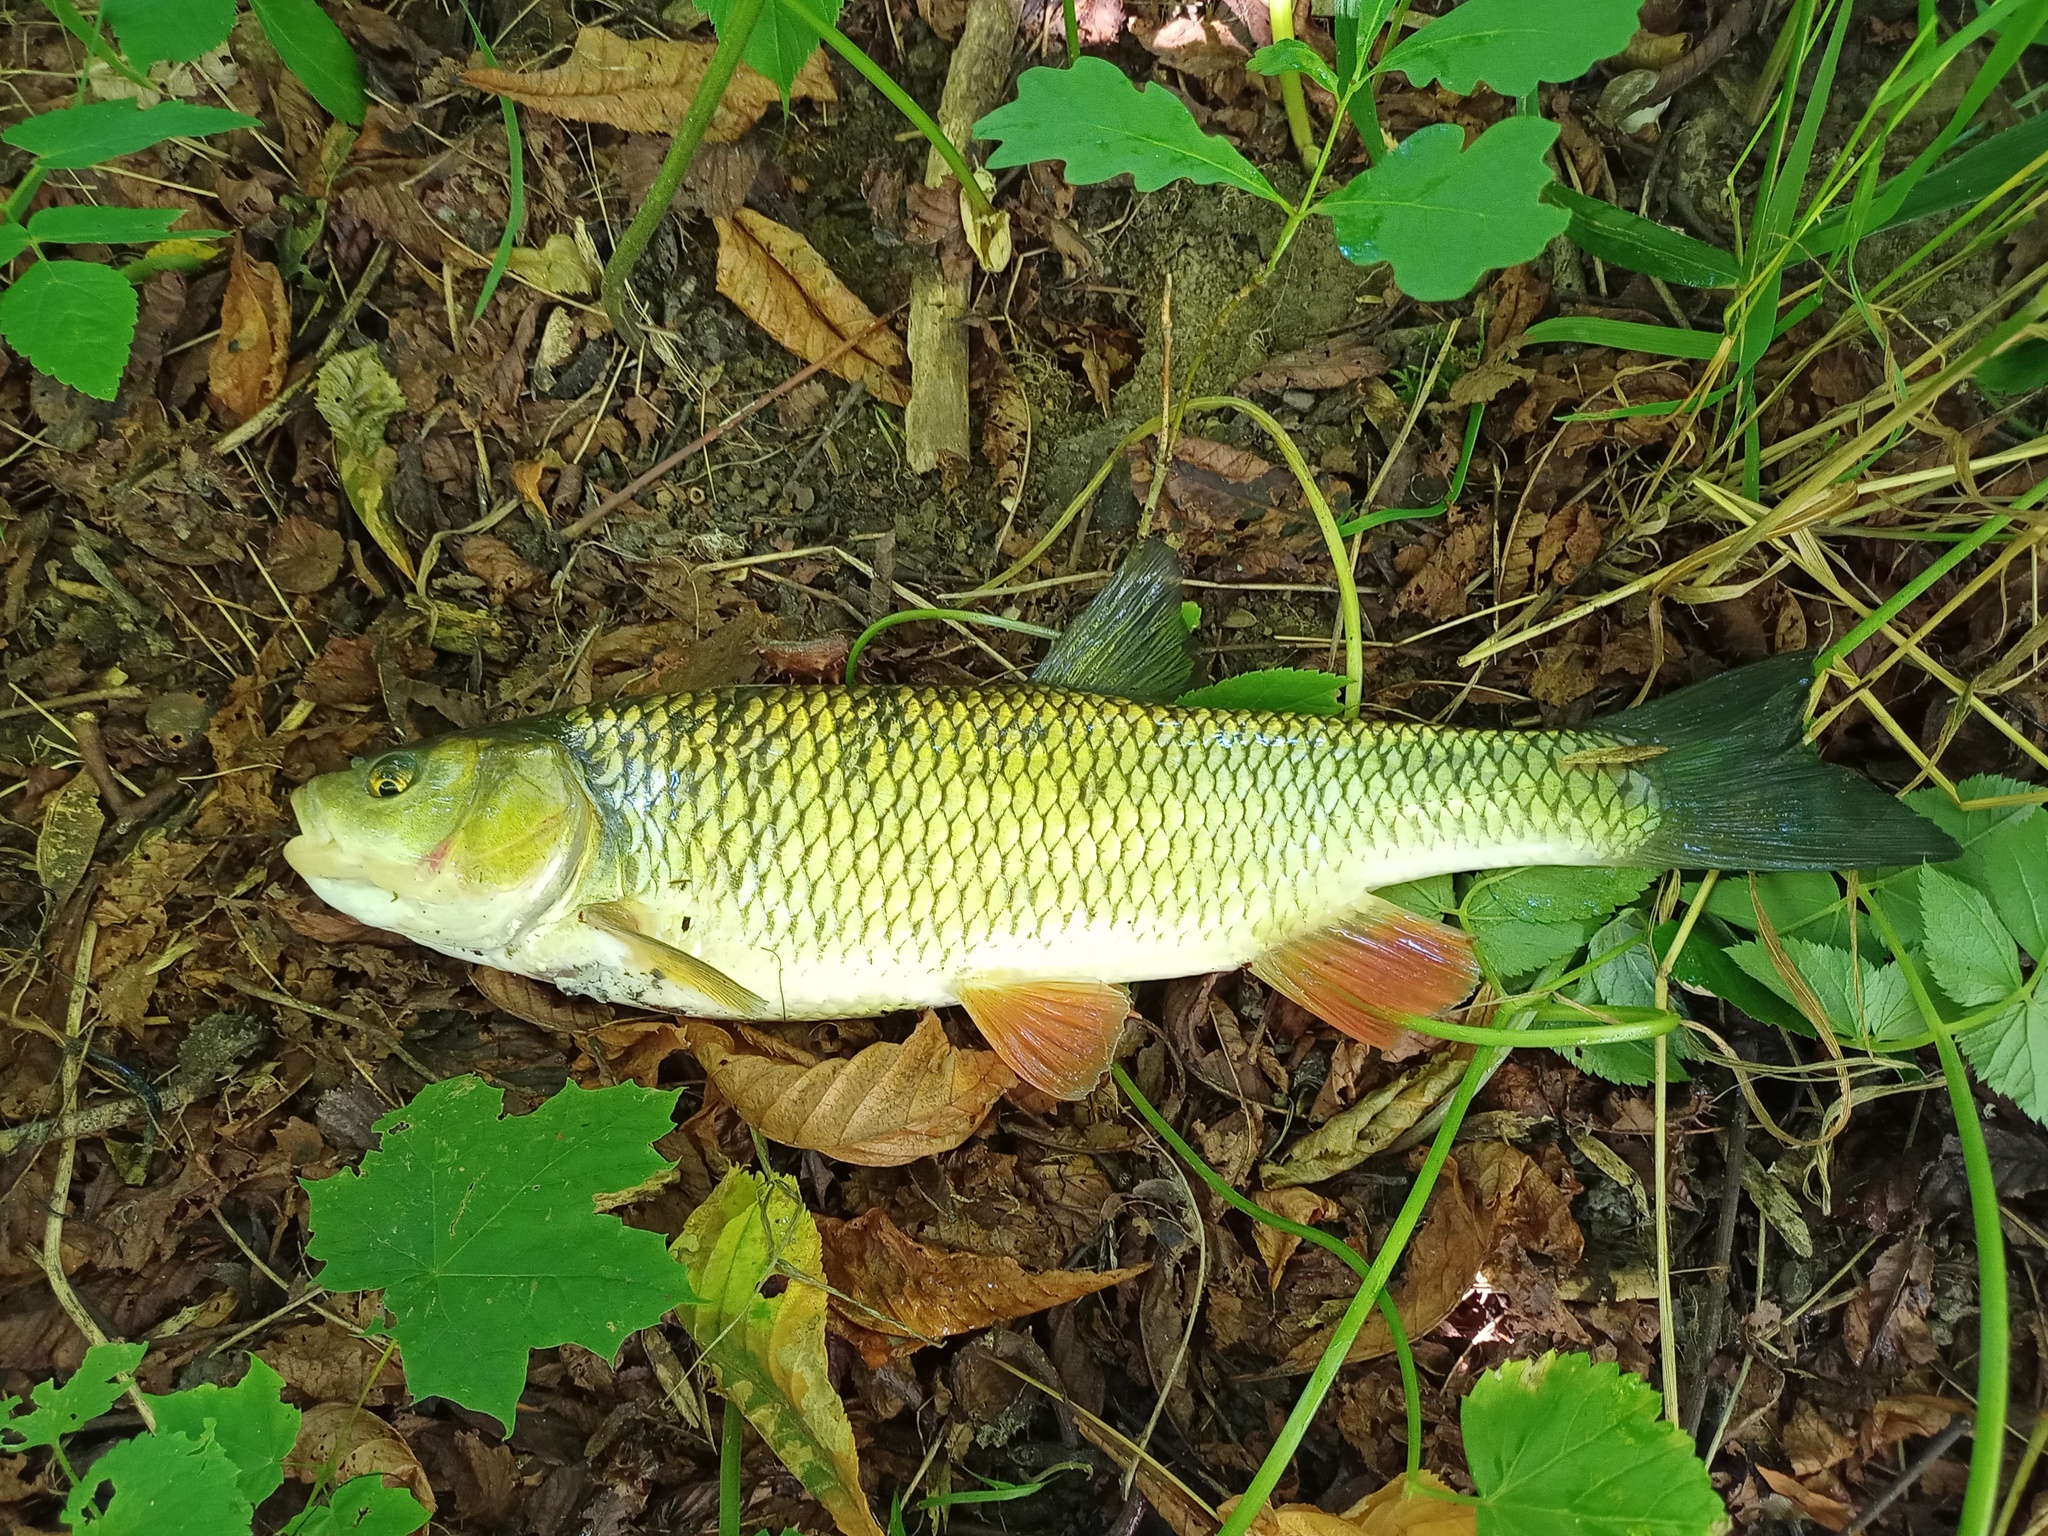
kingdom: Animalia
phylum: Chordata
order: Cypriniformes
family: Cyprinidae
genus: Squalius
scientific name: Squalius cephalus
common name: Chub
